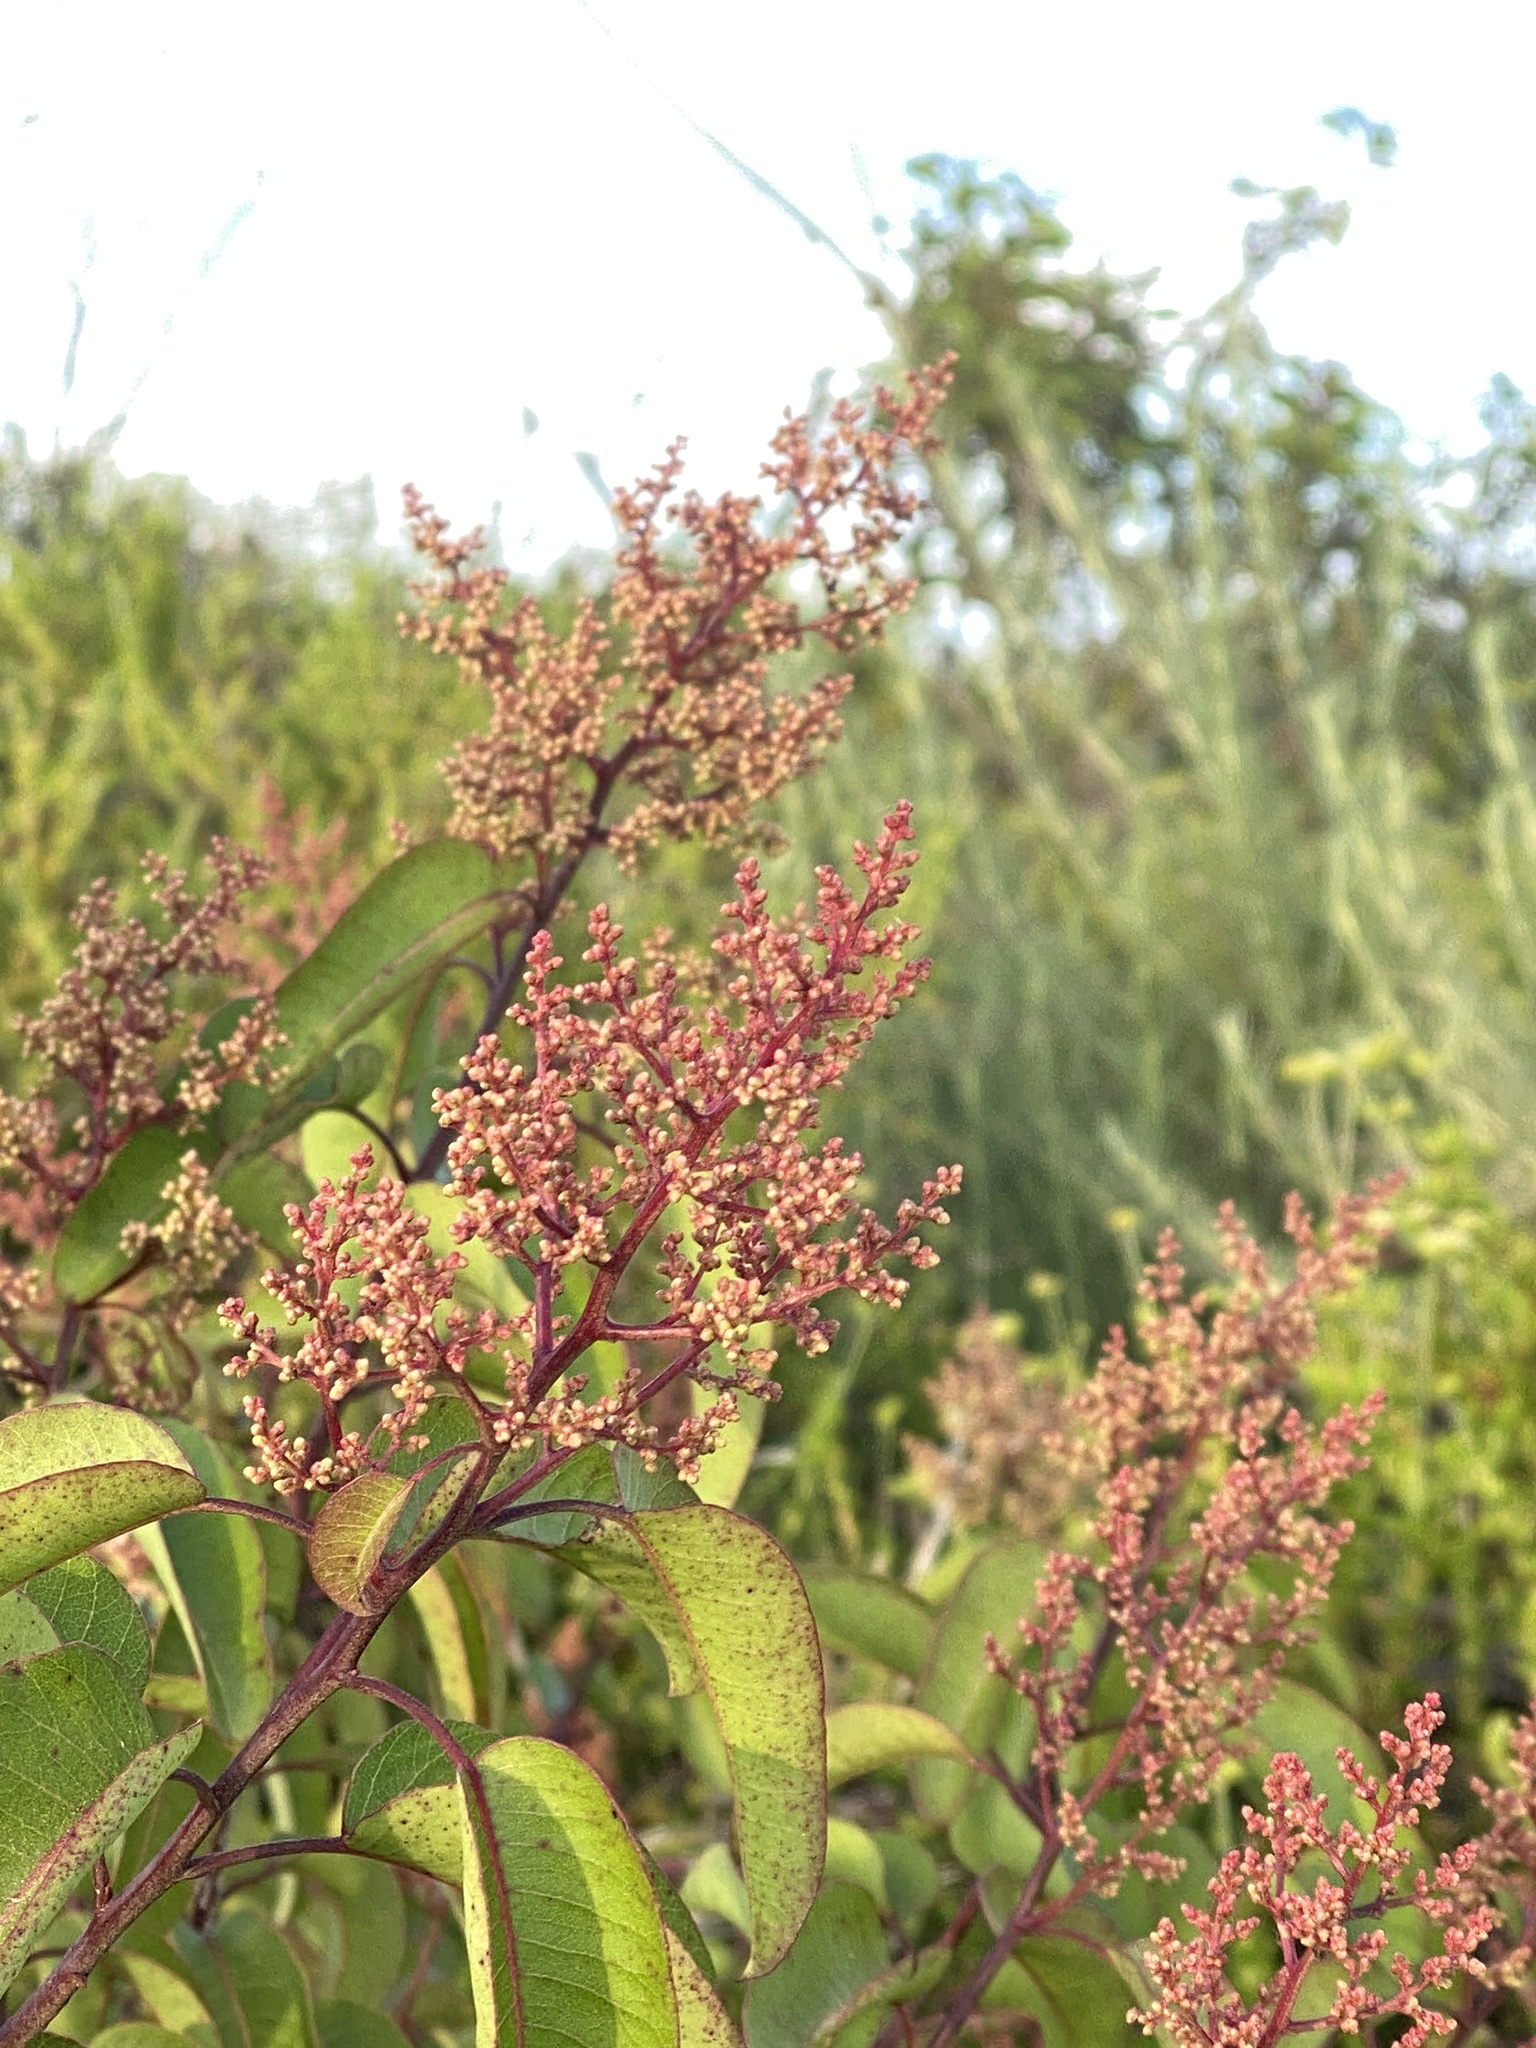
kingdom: Plantae
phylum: Tracheophyta
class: Magnoliopsida
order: Sapindales
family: Anacardiaceae
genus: Malosma
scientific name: Malosma laurina
